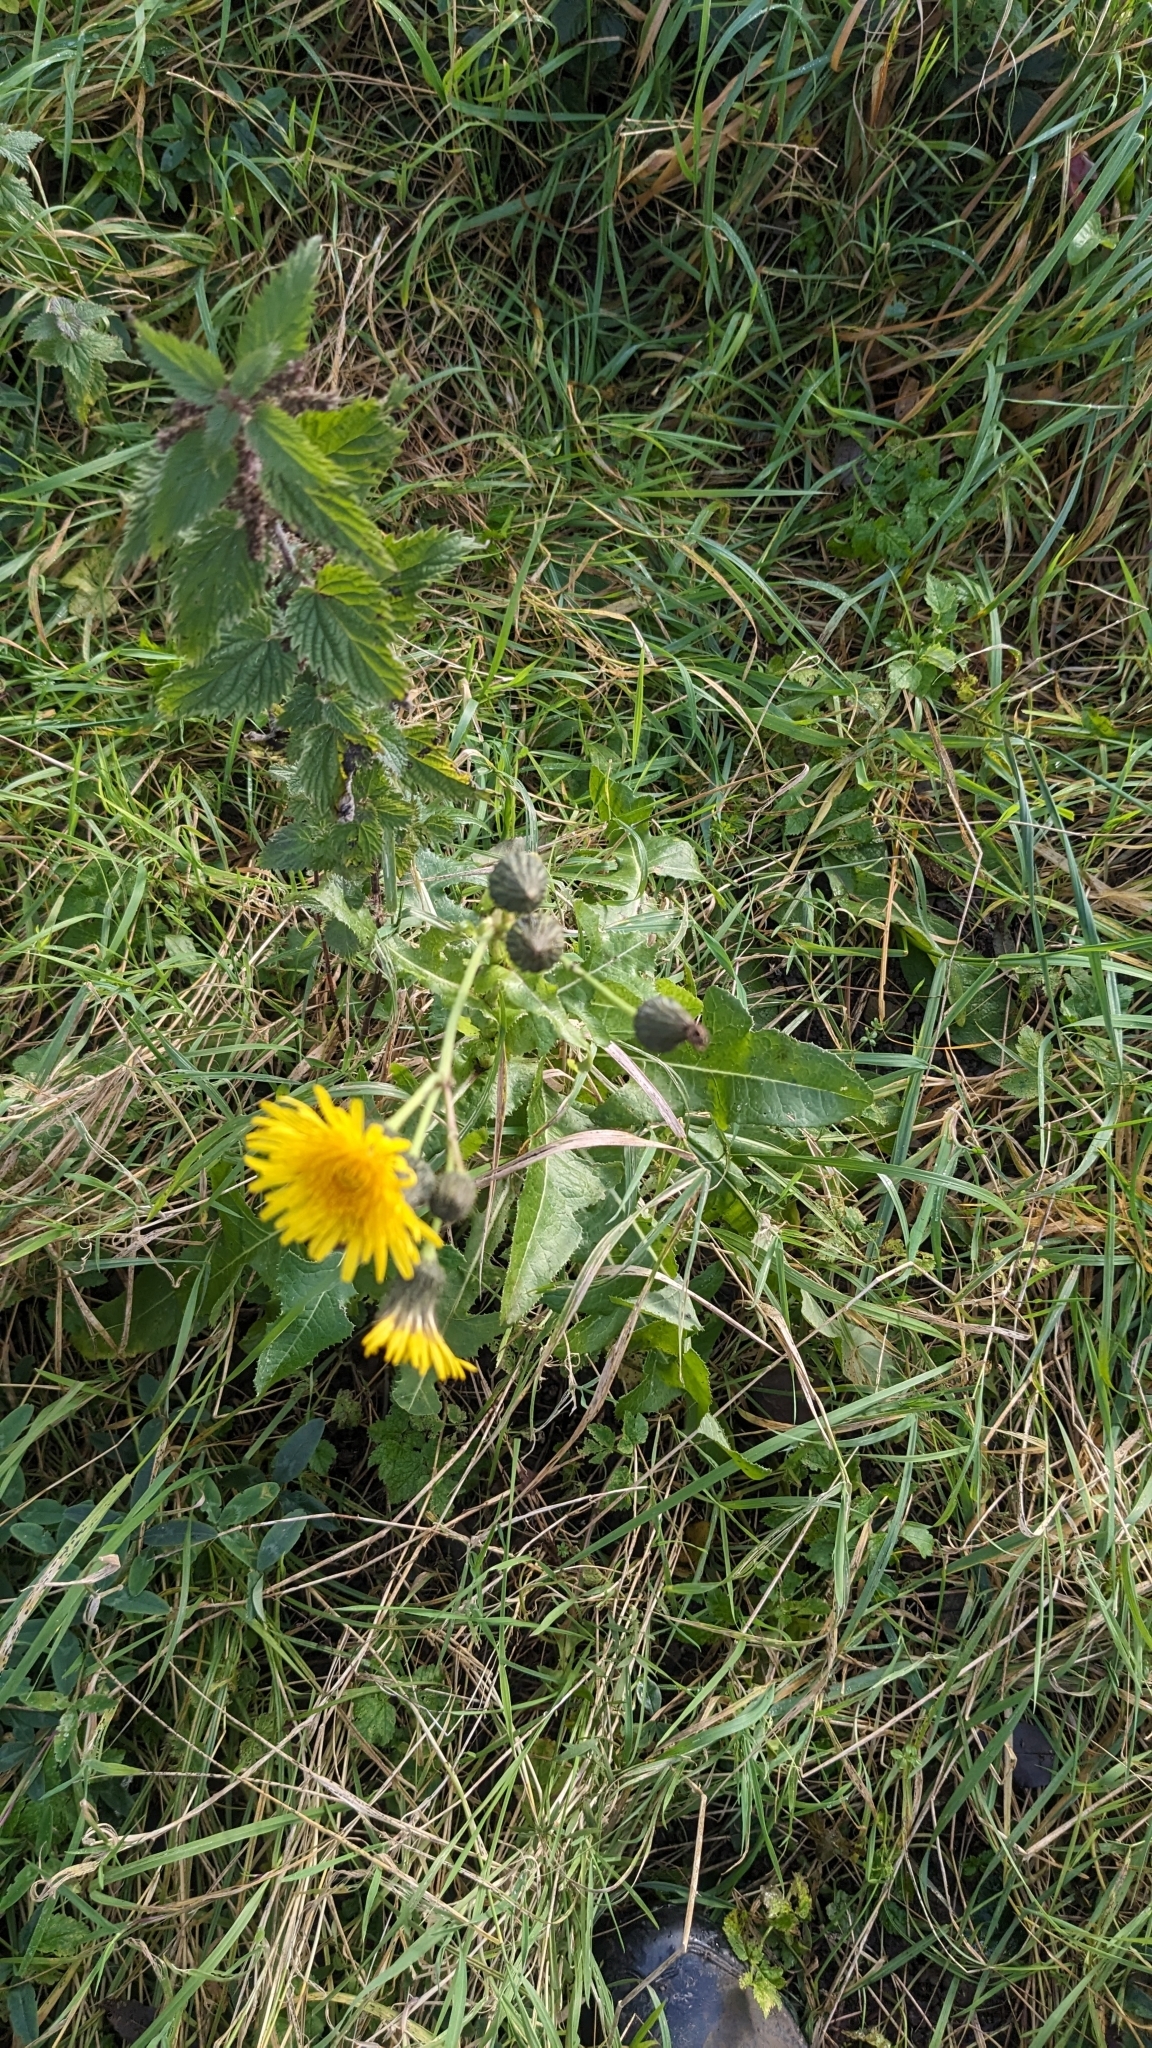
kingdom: Plantae
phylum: Tracheophyta
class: Magnoliopsida
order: Asterales
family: Asteraceae
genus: Sonchus
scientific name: Sonchus arvensis
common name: Perennial sow-thistle
